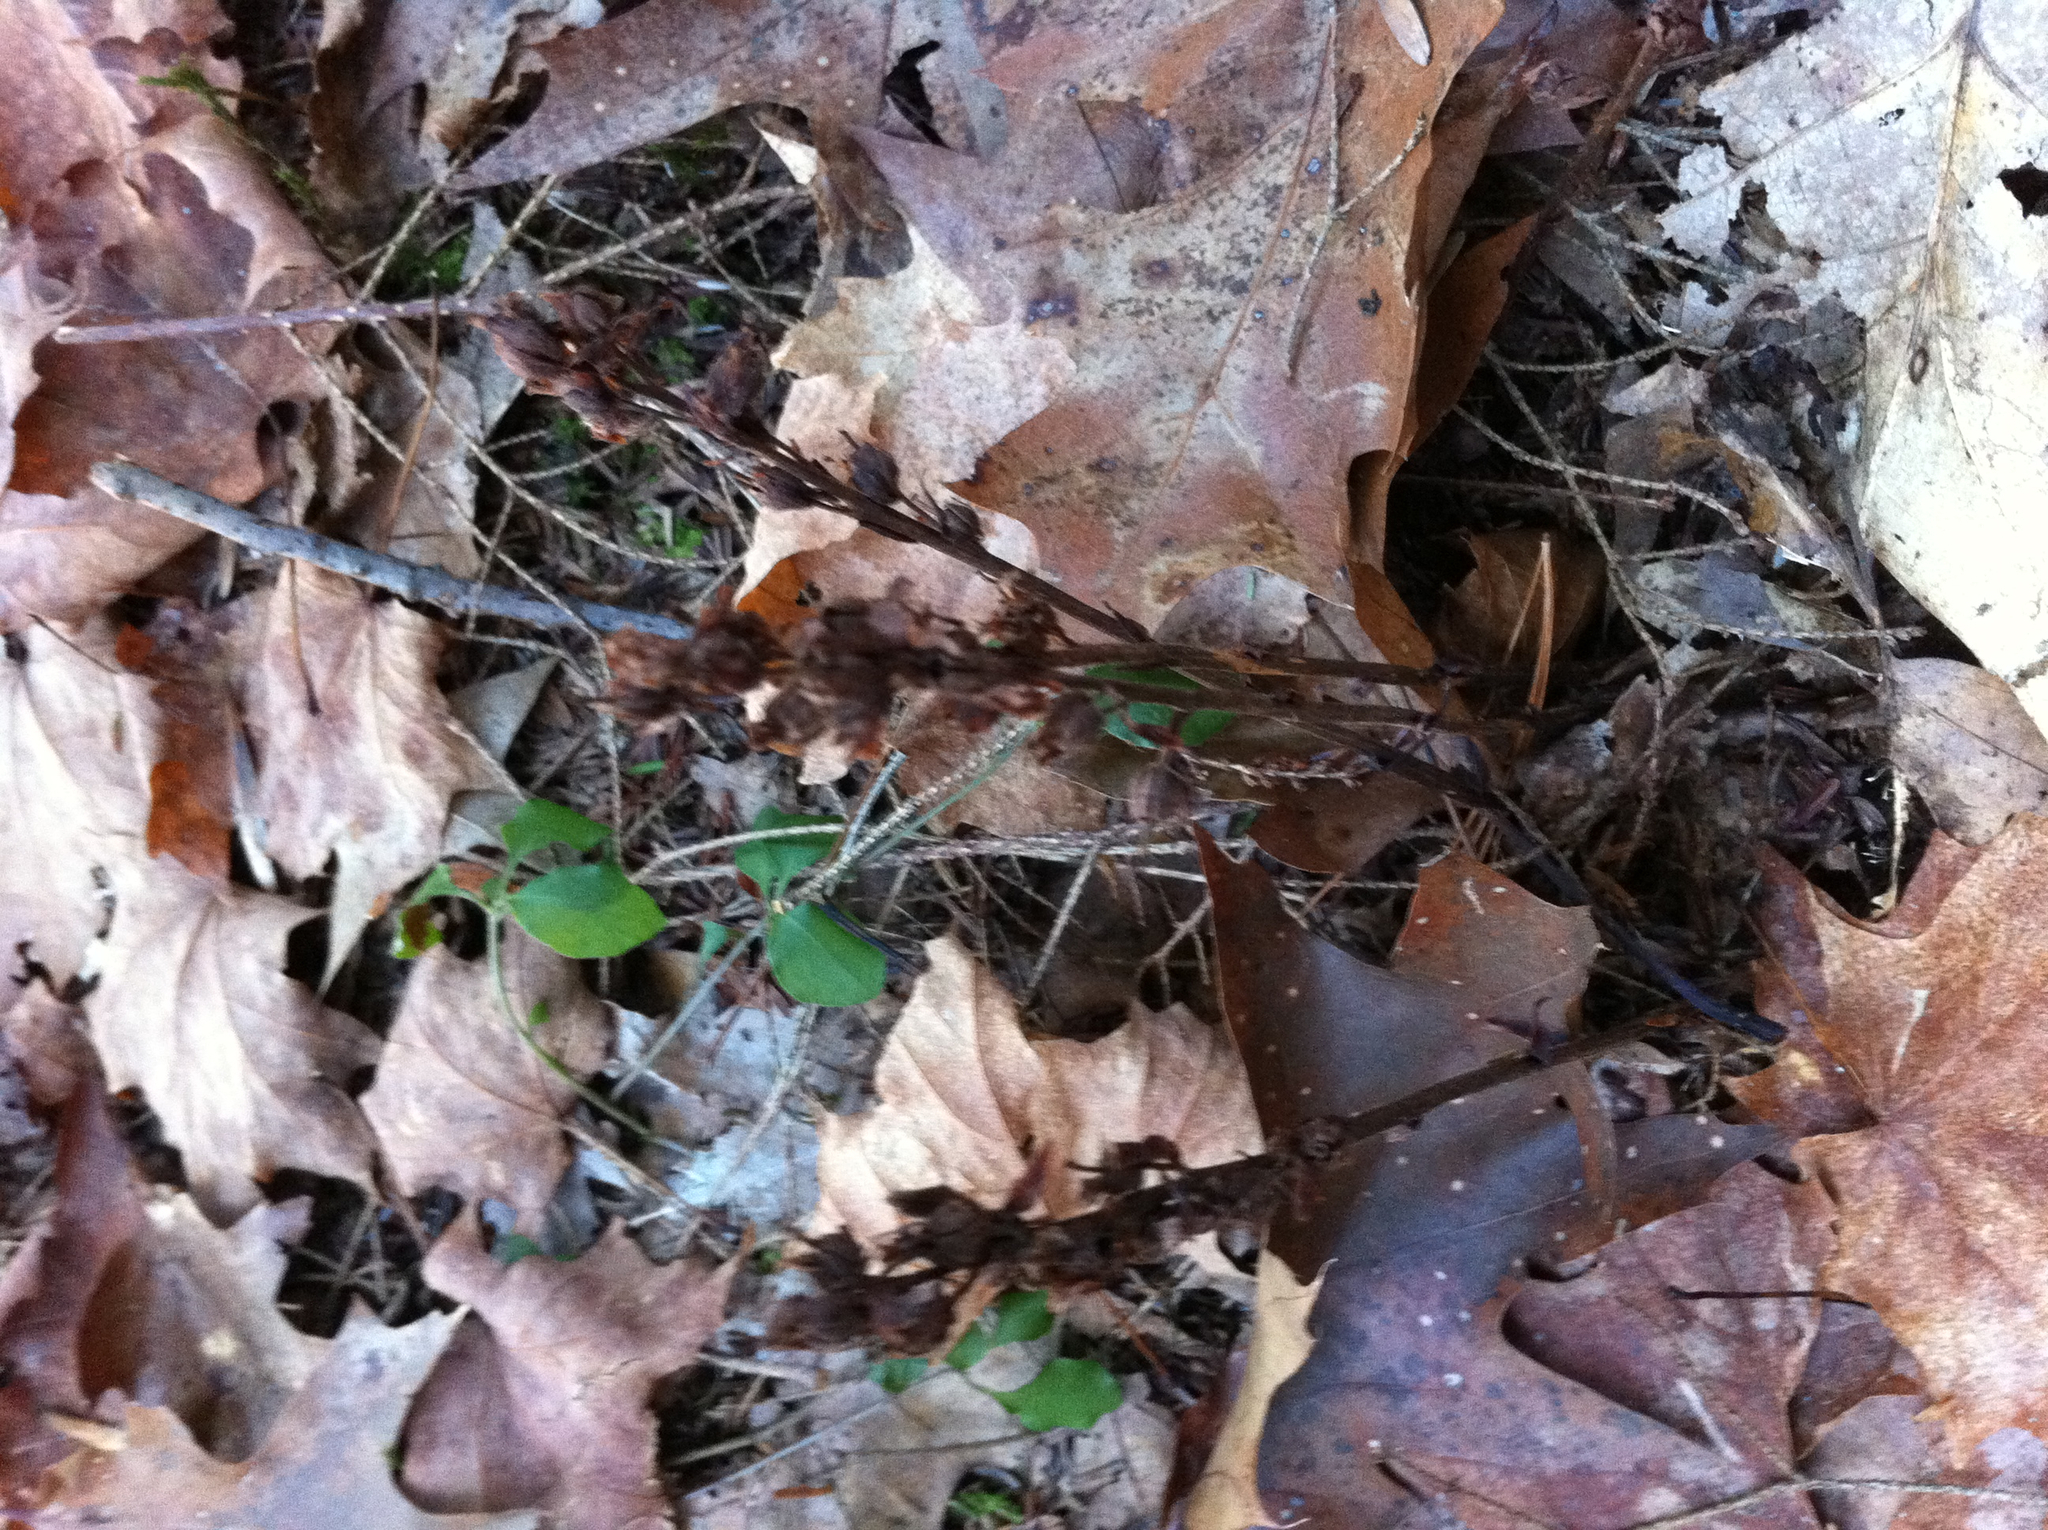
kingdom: Plantae
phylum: Tracheophyta
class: Magnoliopsida
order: Ericales
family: Ericaceae
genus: Hypopitys
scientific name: Hypopitys monotropa
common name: Yellow bird's-nest
